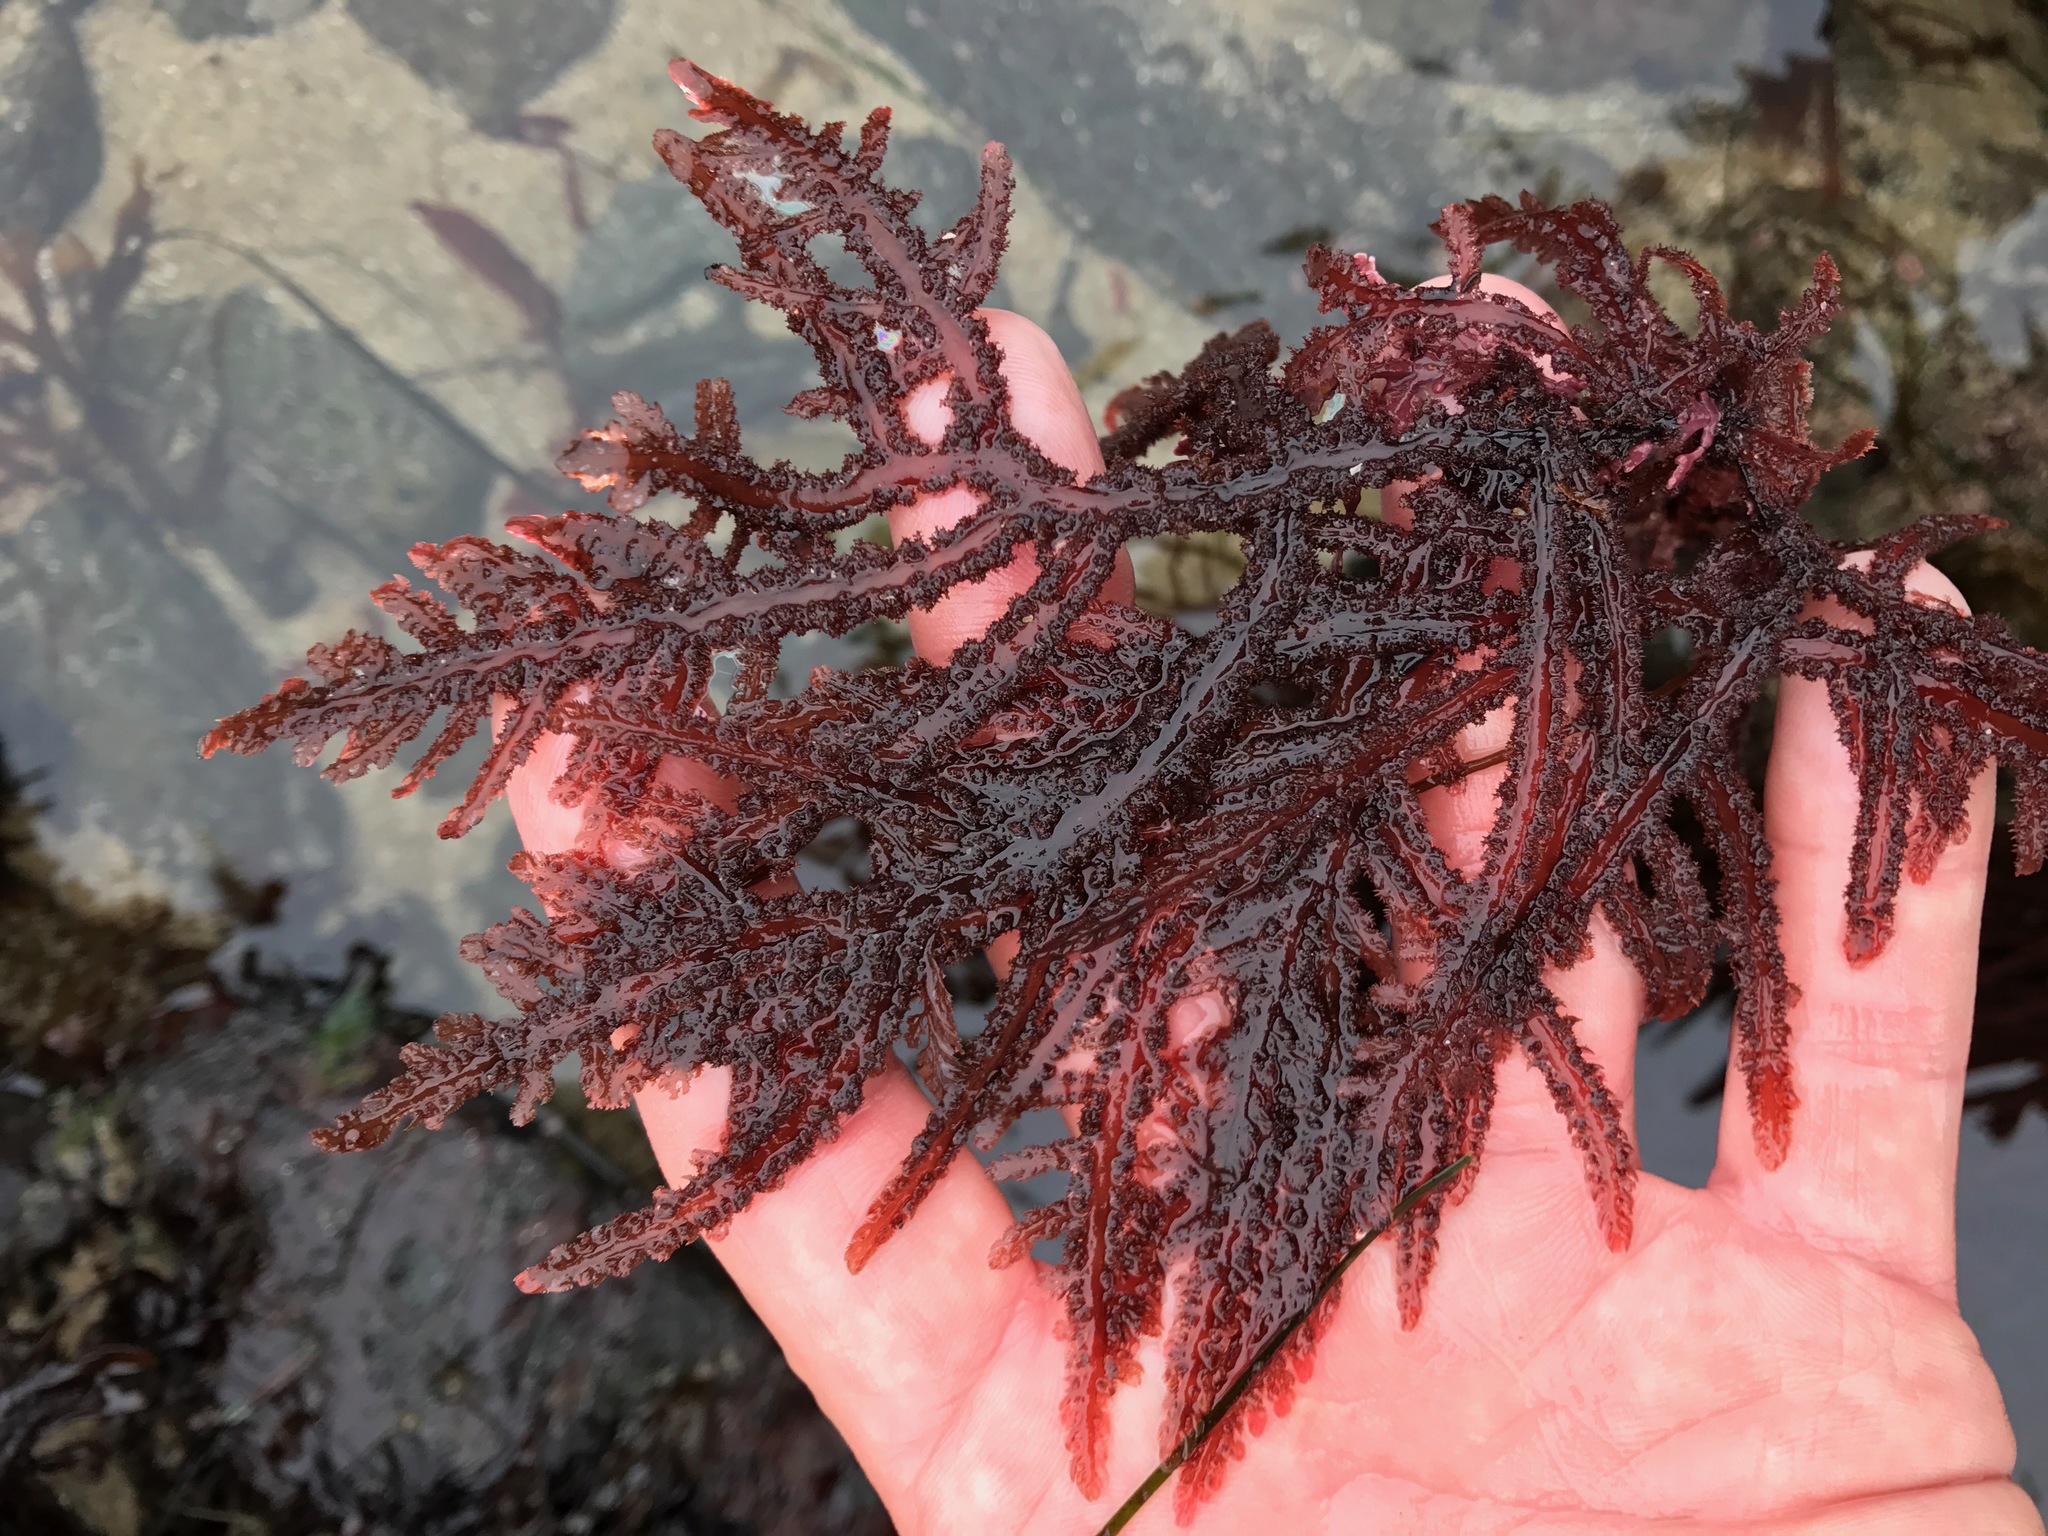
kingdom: Plantae
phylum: Rhodophyta
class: Florideophyceae
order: Ceramiales
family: Wrangeliaceae
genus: Neoptilota
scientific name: Neoptilota densa
